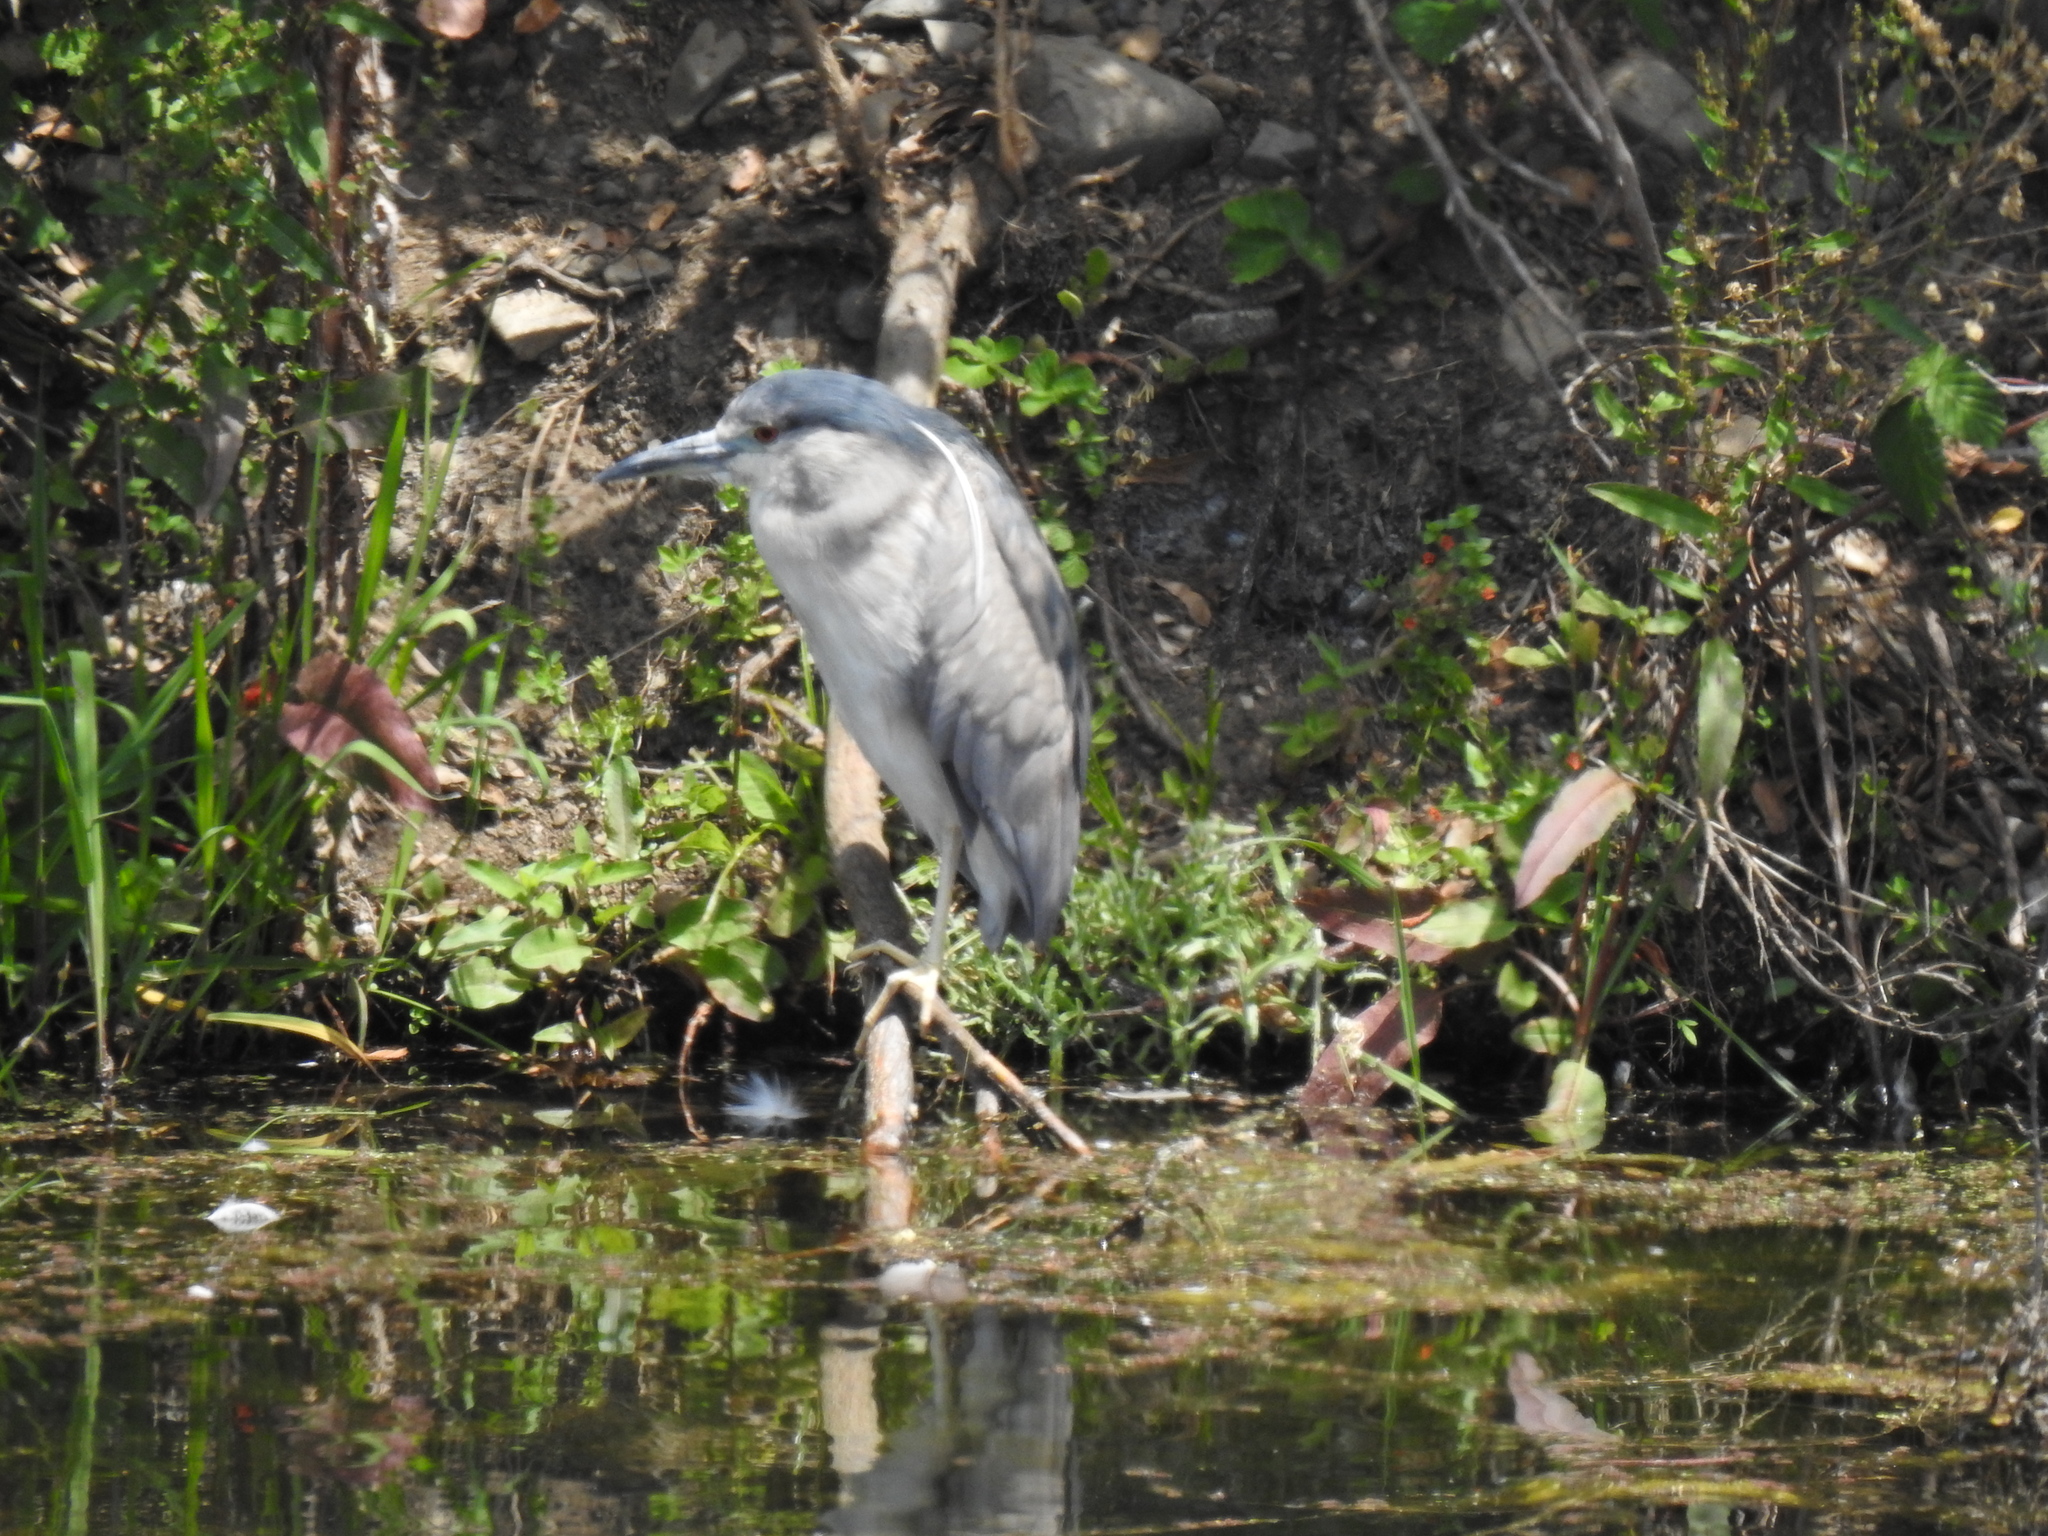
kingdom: Animalia
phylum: Chordata
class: Aves
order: Pelecaniformes
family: Ardeidae
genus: Nycticorax
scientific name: Nycticorax nycticorax
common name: Black-crowned night heron
